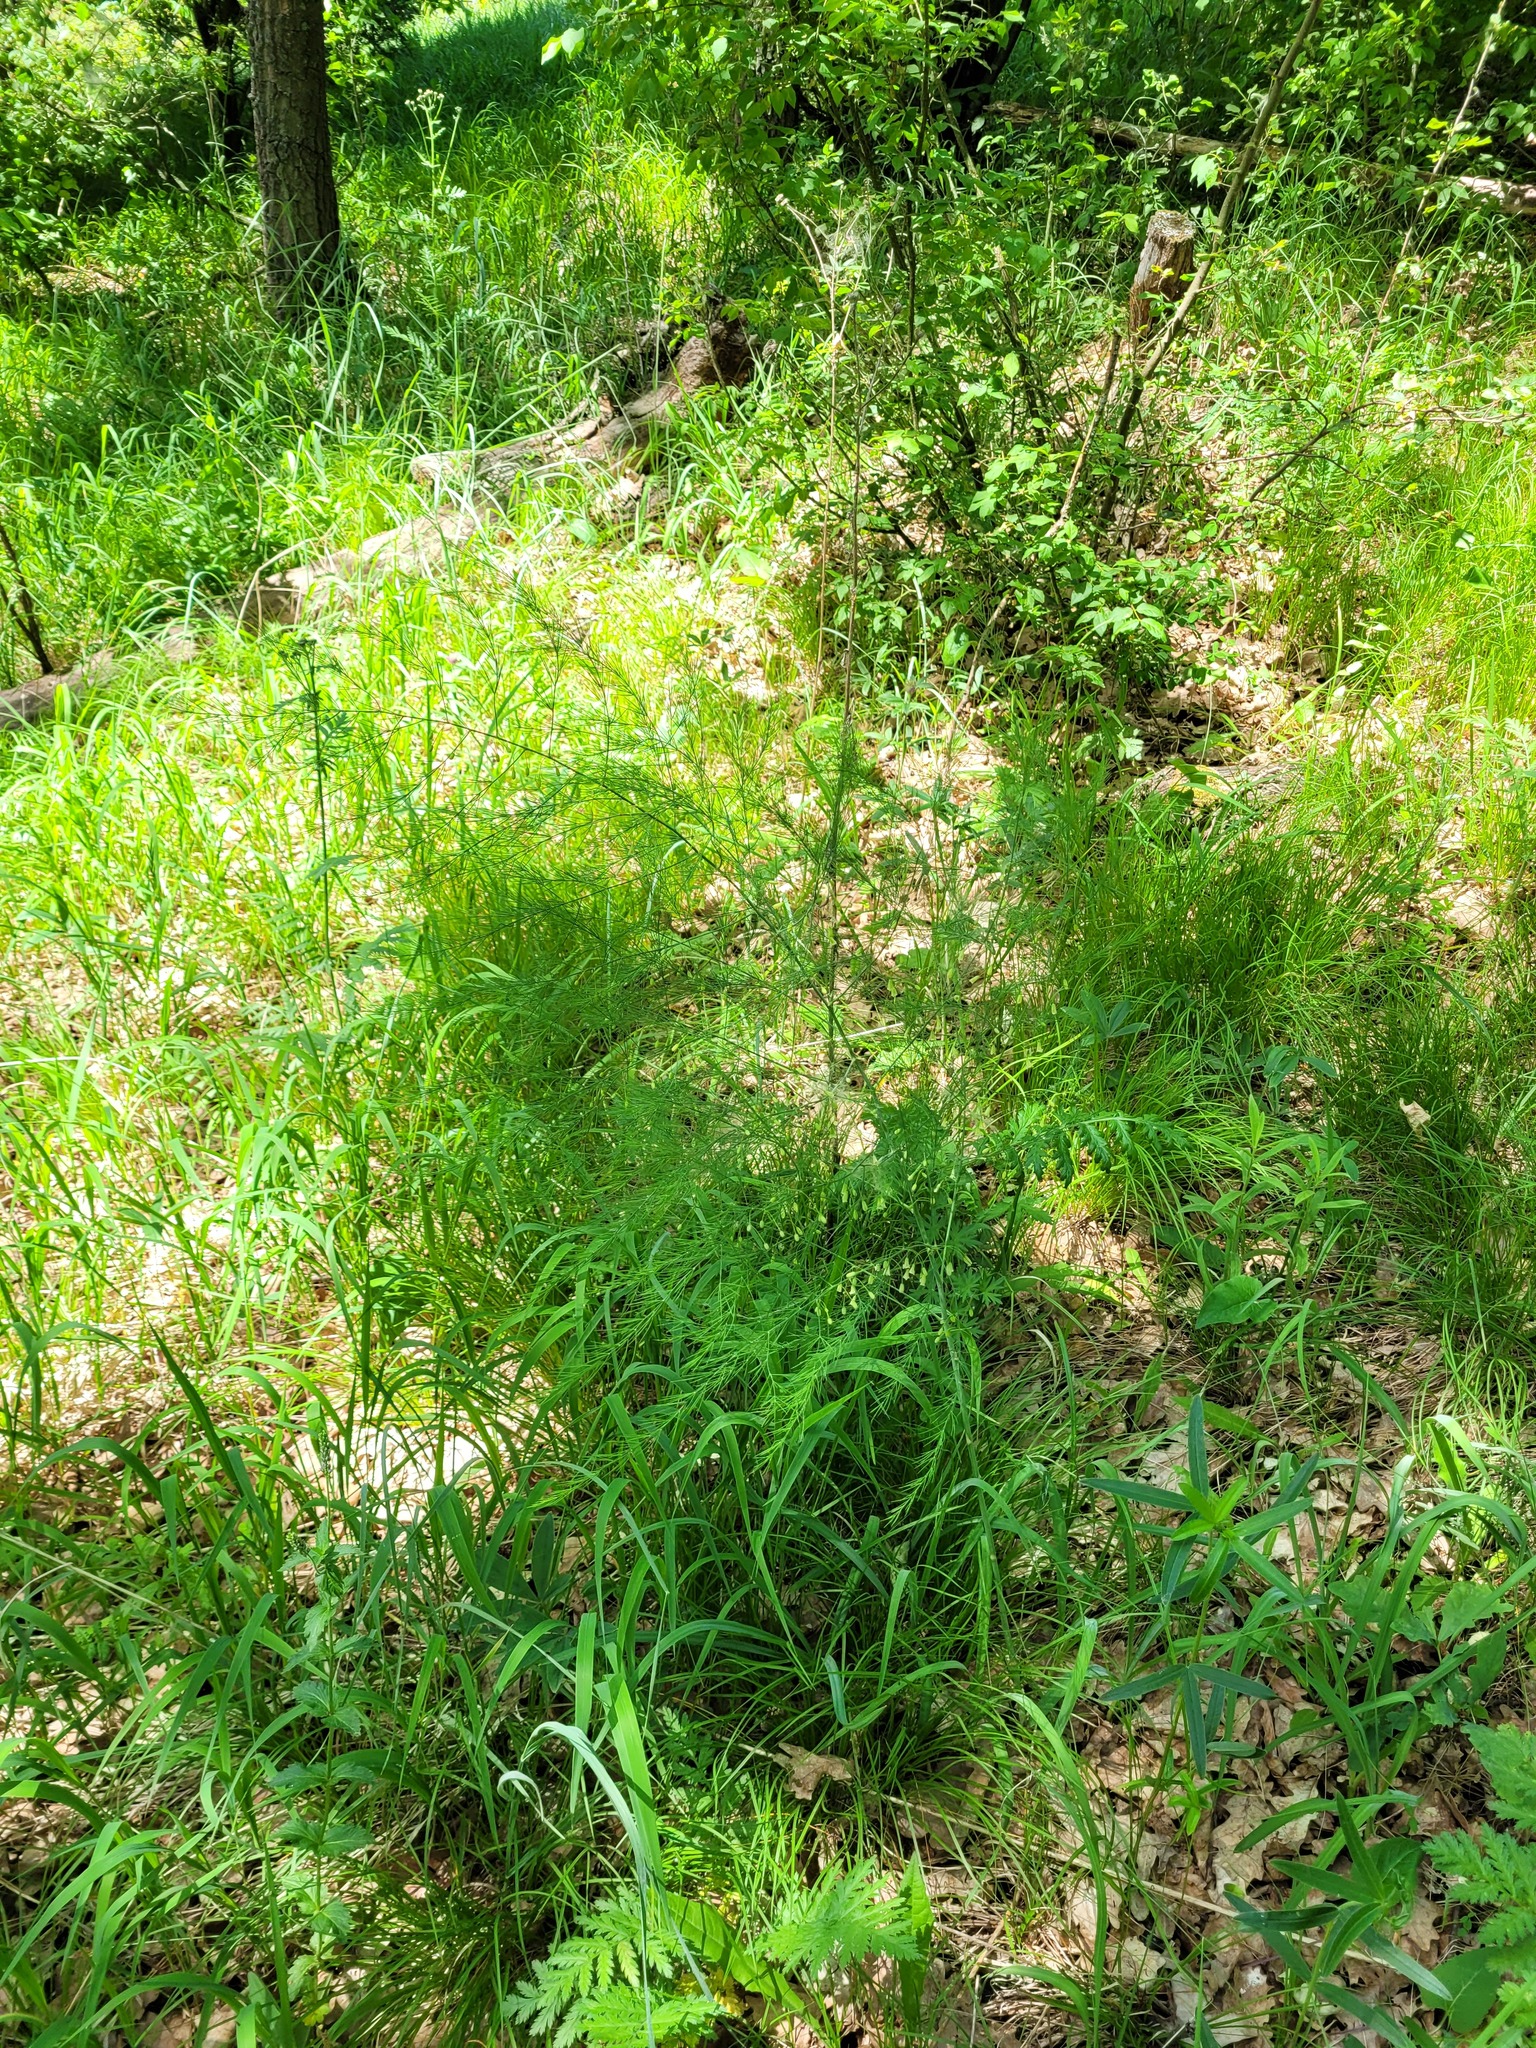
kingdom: Plantae
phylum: Tracheophyta
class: Liliopsida
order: Asparagales
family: Asparagaceae
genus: Asparagus
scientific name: Asparagus officinalis
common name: Garden asparagus
